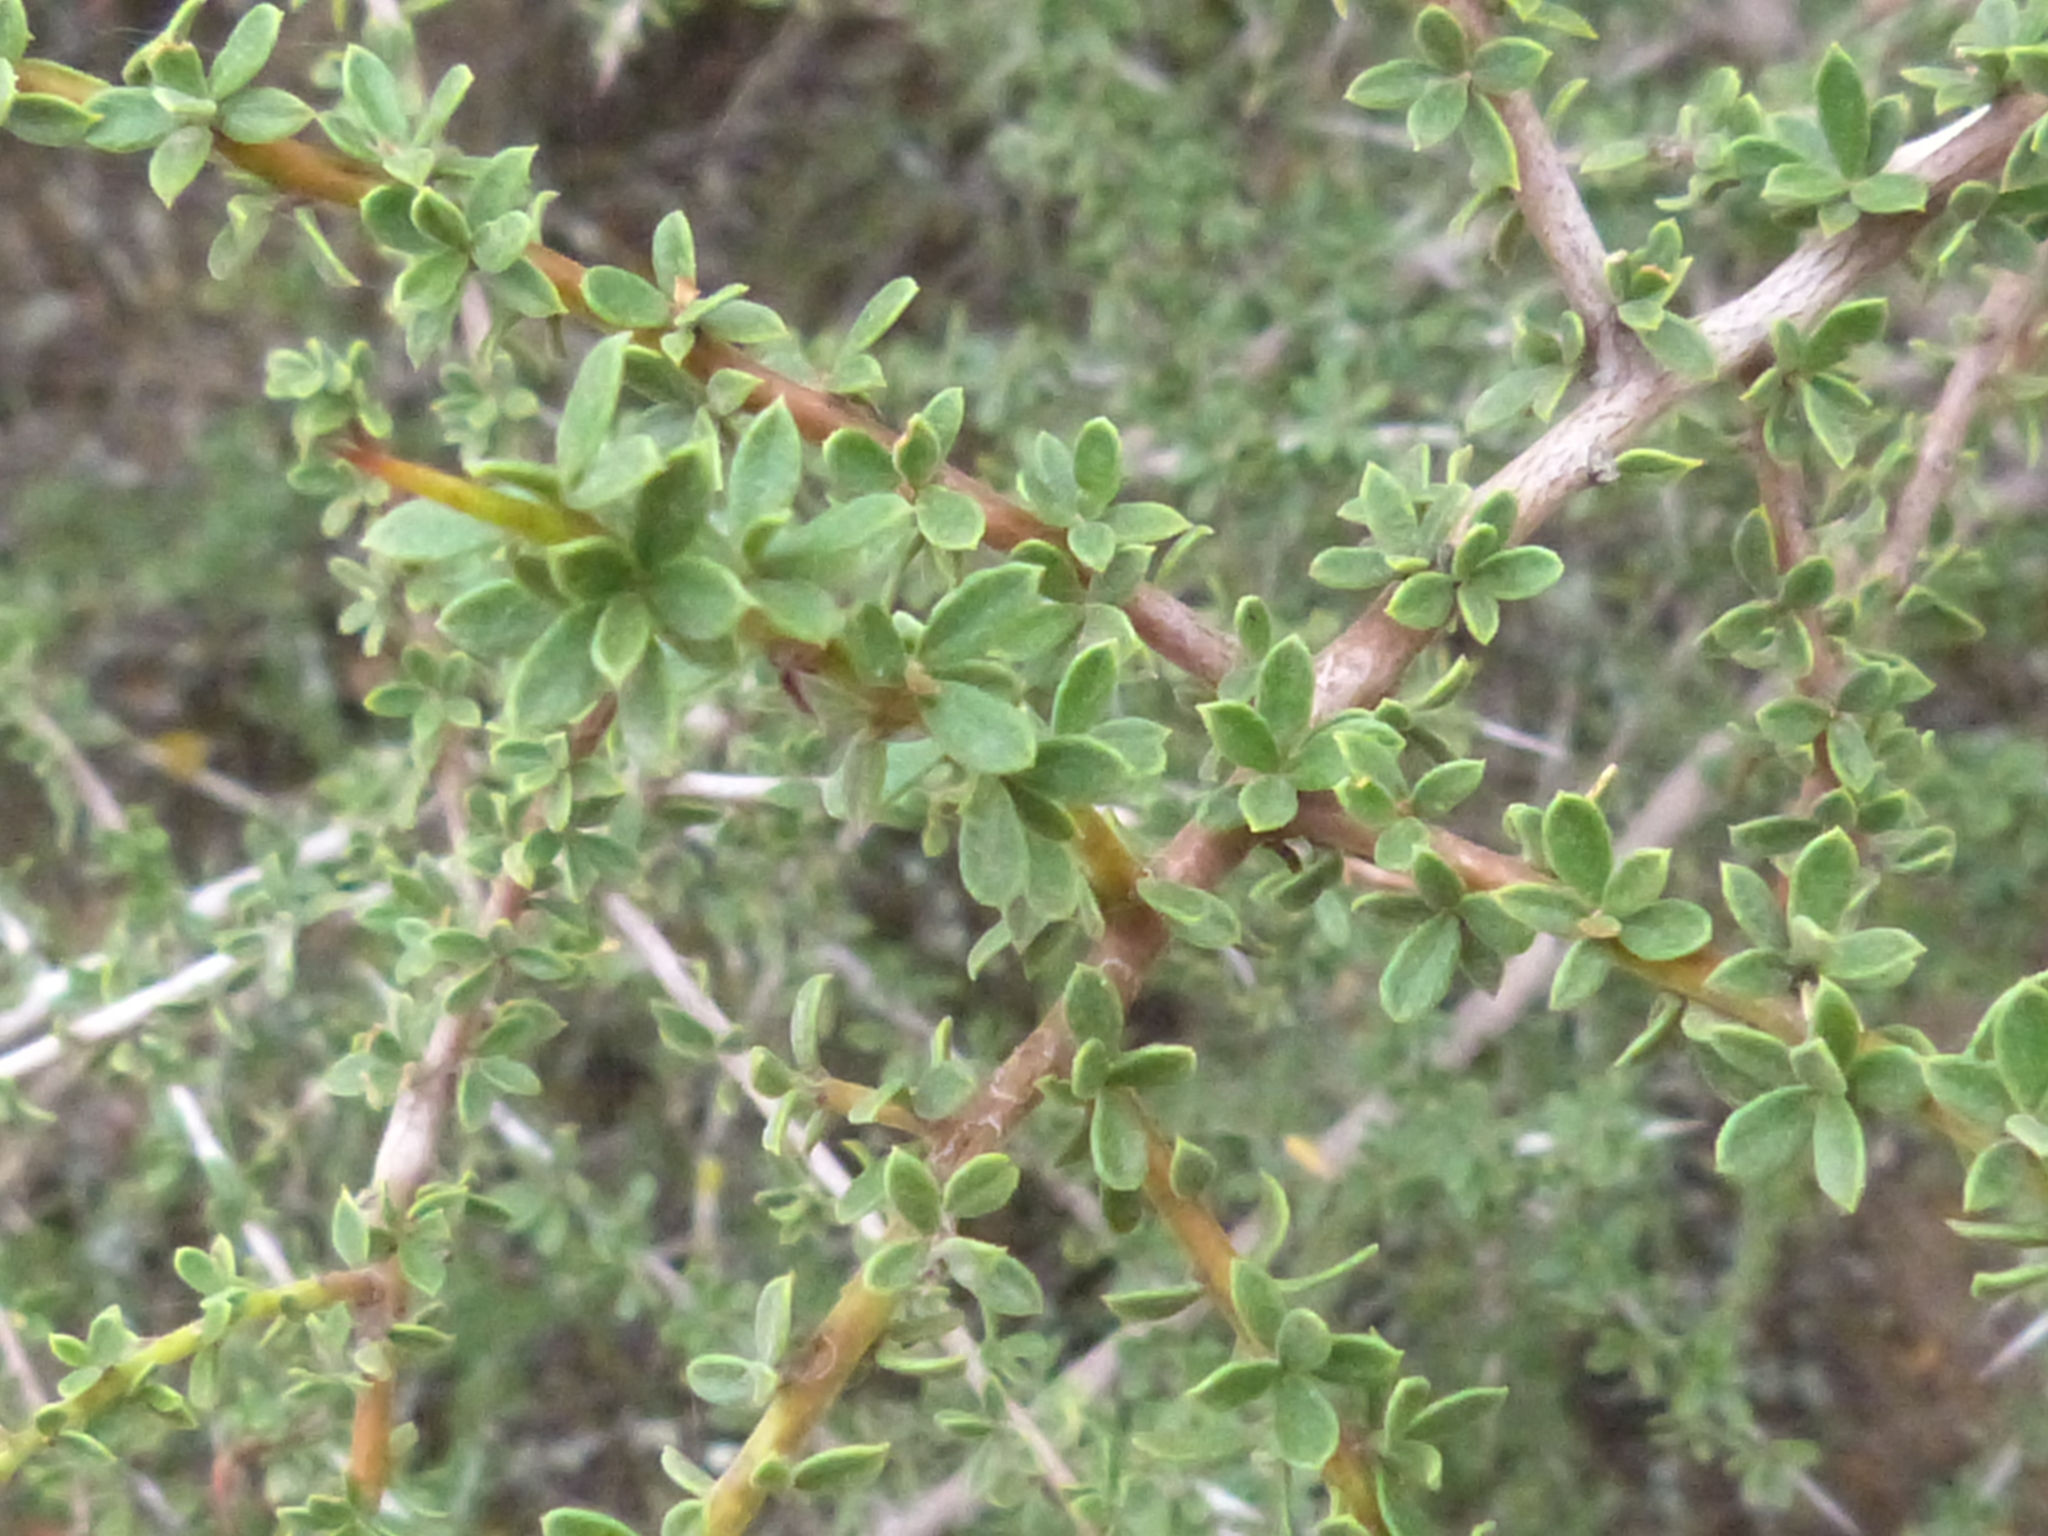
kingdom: Plantae
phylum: Tracheophyta
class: Magnoliopsida
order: Rosales
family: Rhamnaceae
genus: Condalia
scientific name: Condalia microphylla
